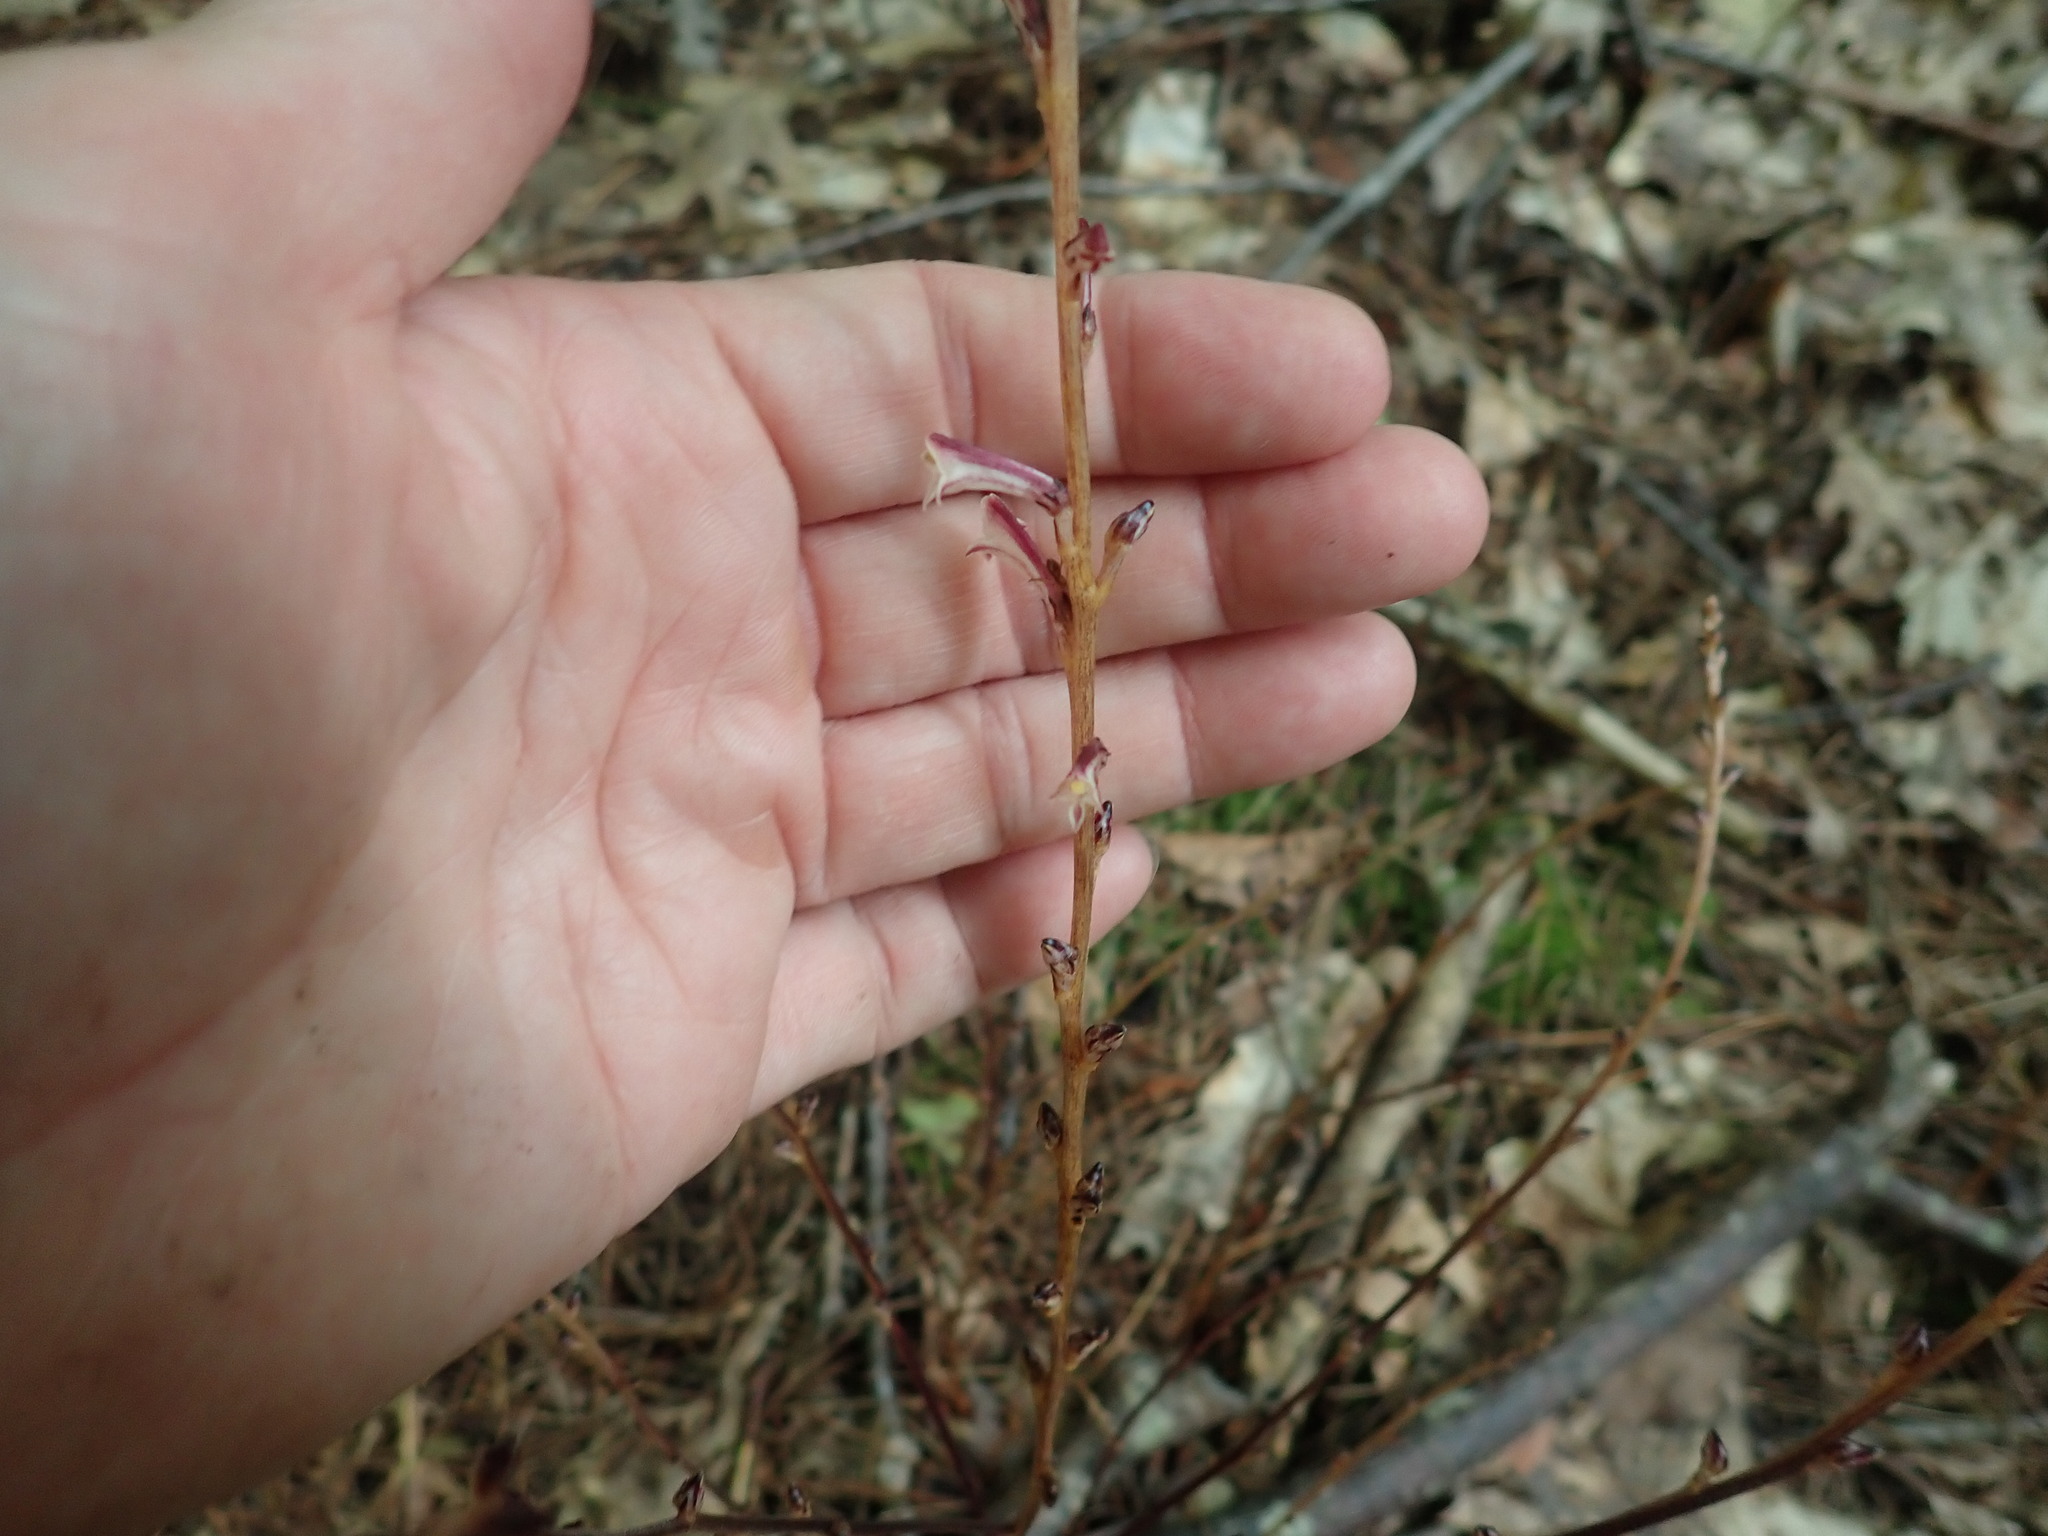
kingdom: Plantae
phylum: Tracheophyta
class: Magnoliopsida
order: Lamiales
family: Orobanchaceae
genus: Epifagus
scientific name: Epifagus virginiana
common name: Beechdrops
